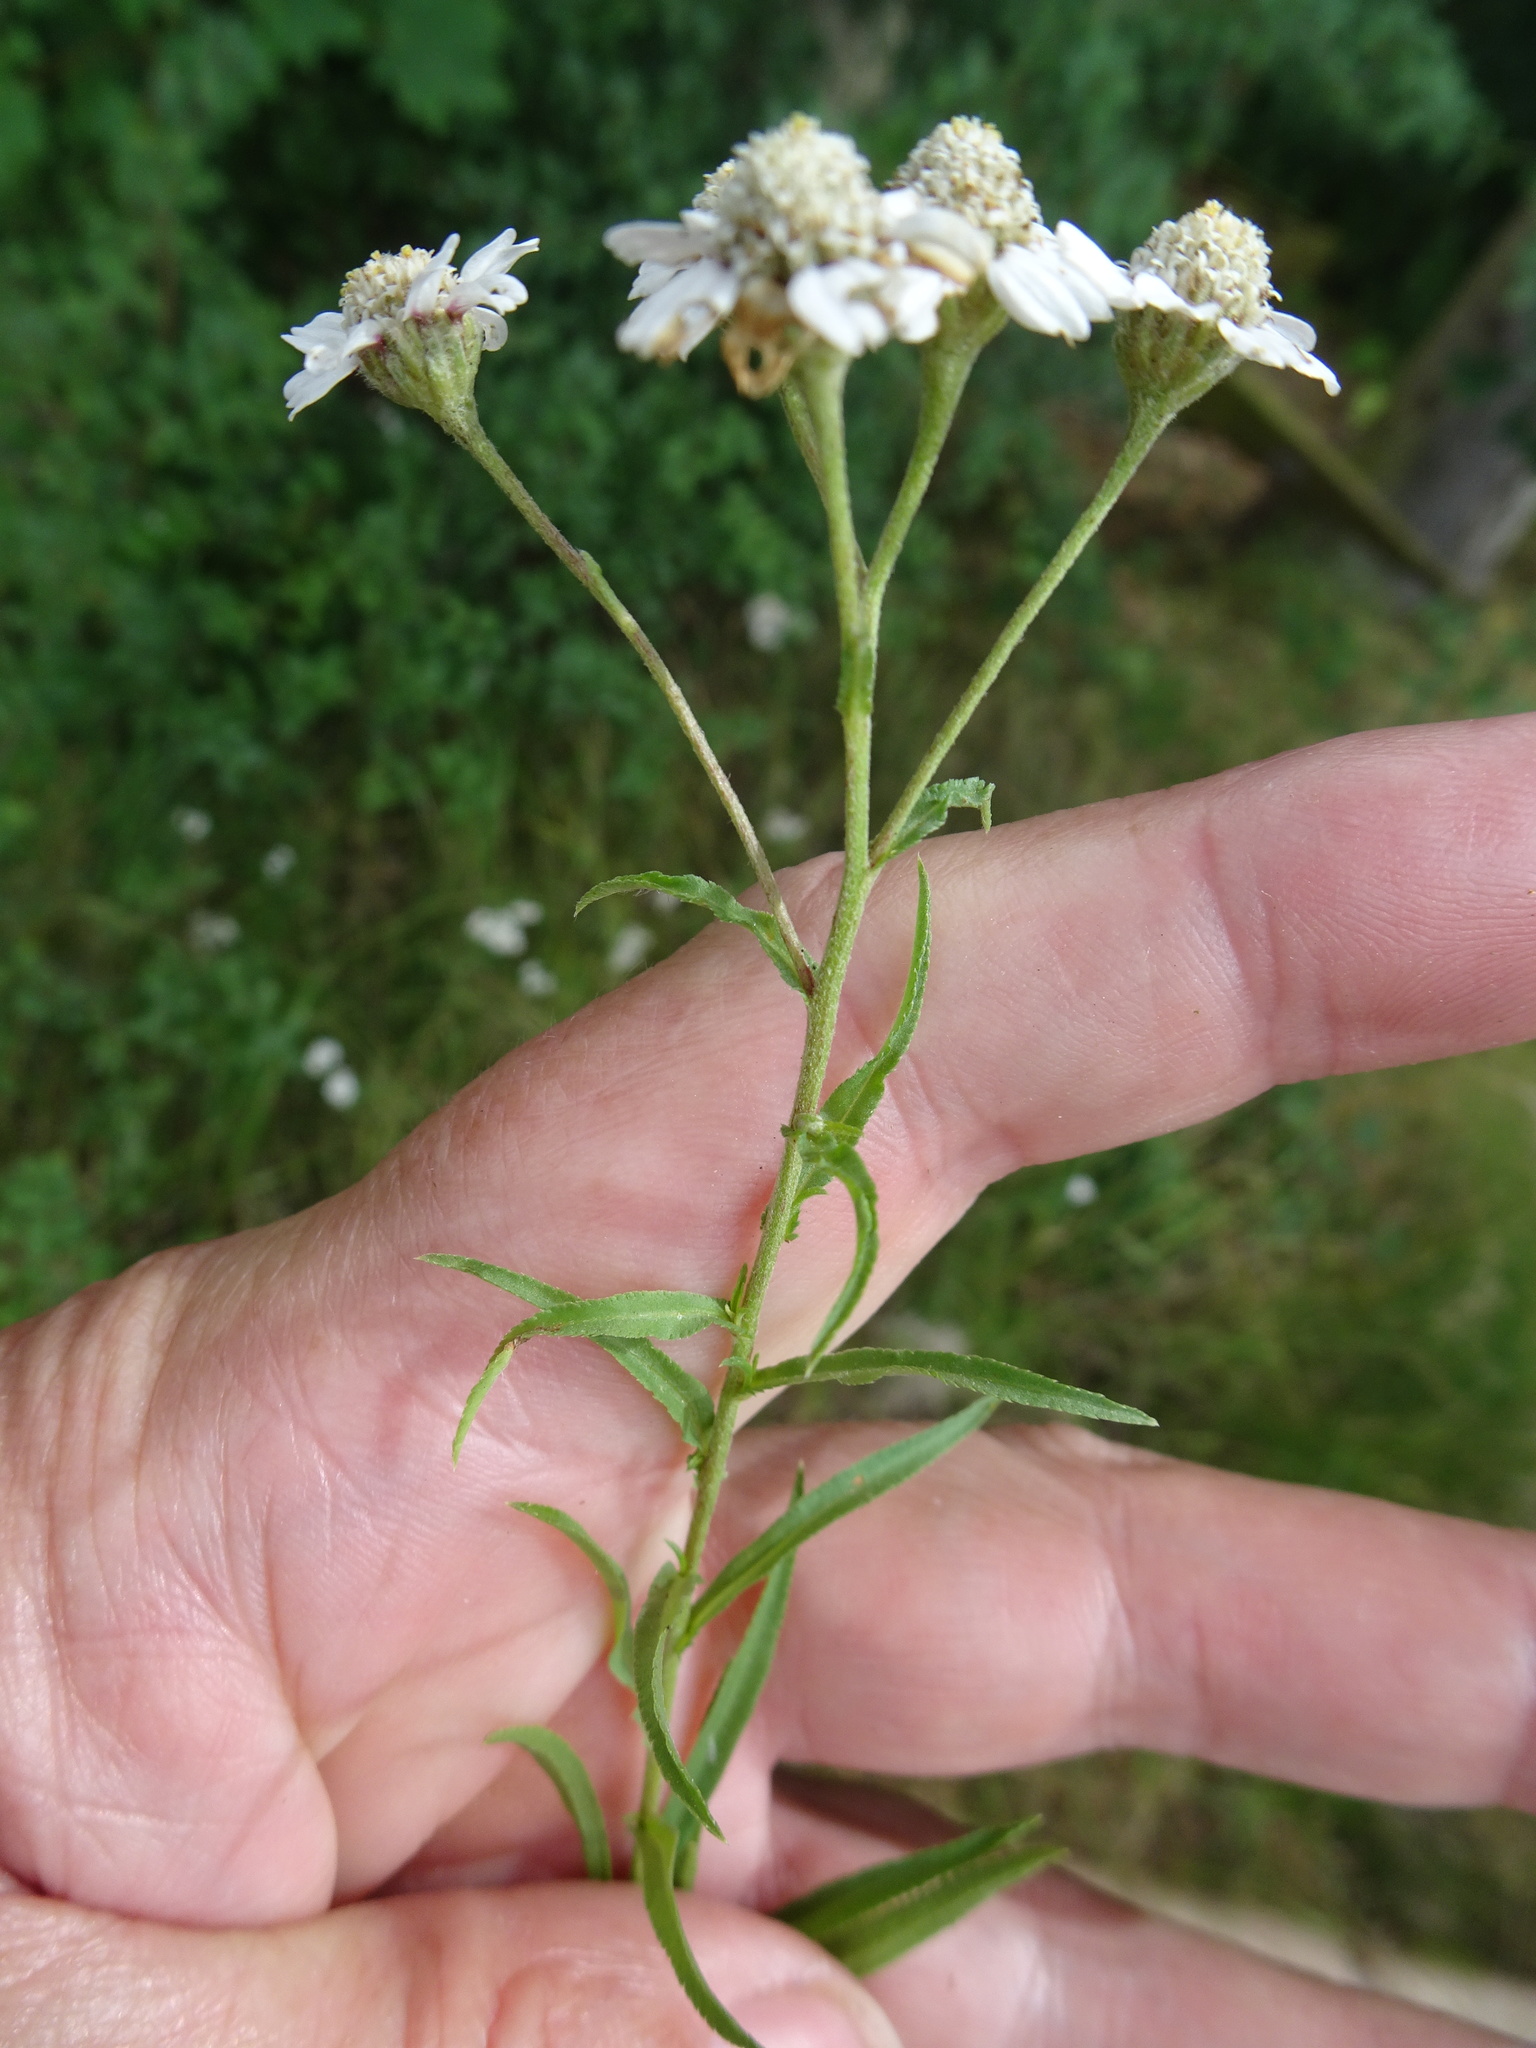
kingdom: Plantae
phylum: Tracheophyta
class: Magnoliopsida
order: Asterales
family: Asteraceae
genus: Achillea
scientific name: Achillea ptarmica
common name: Sneezeweed
